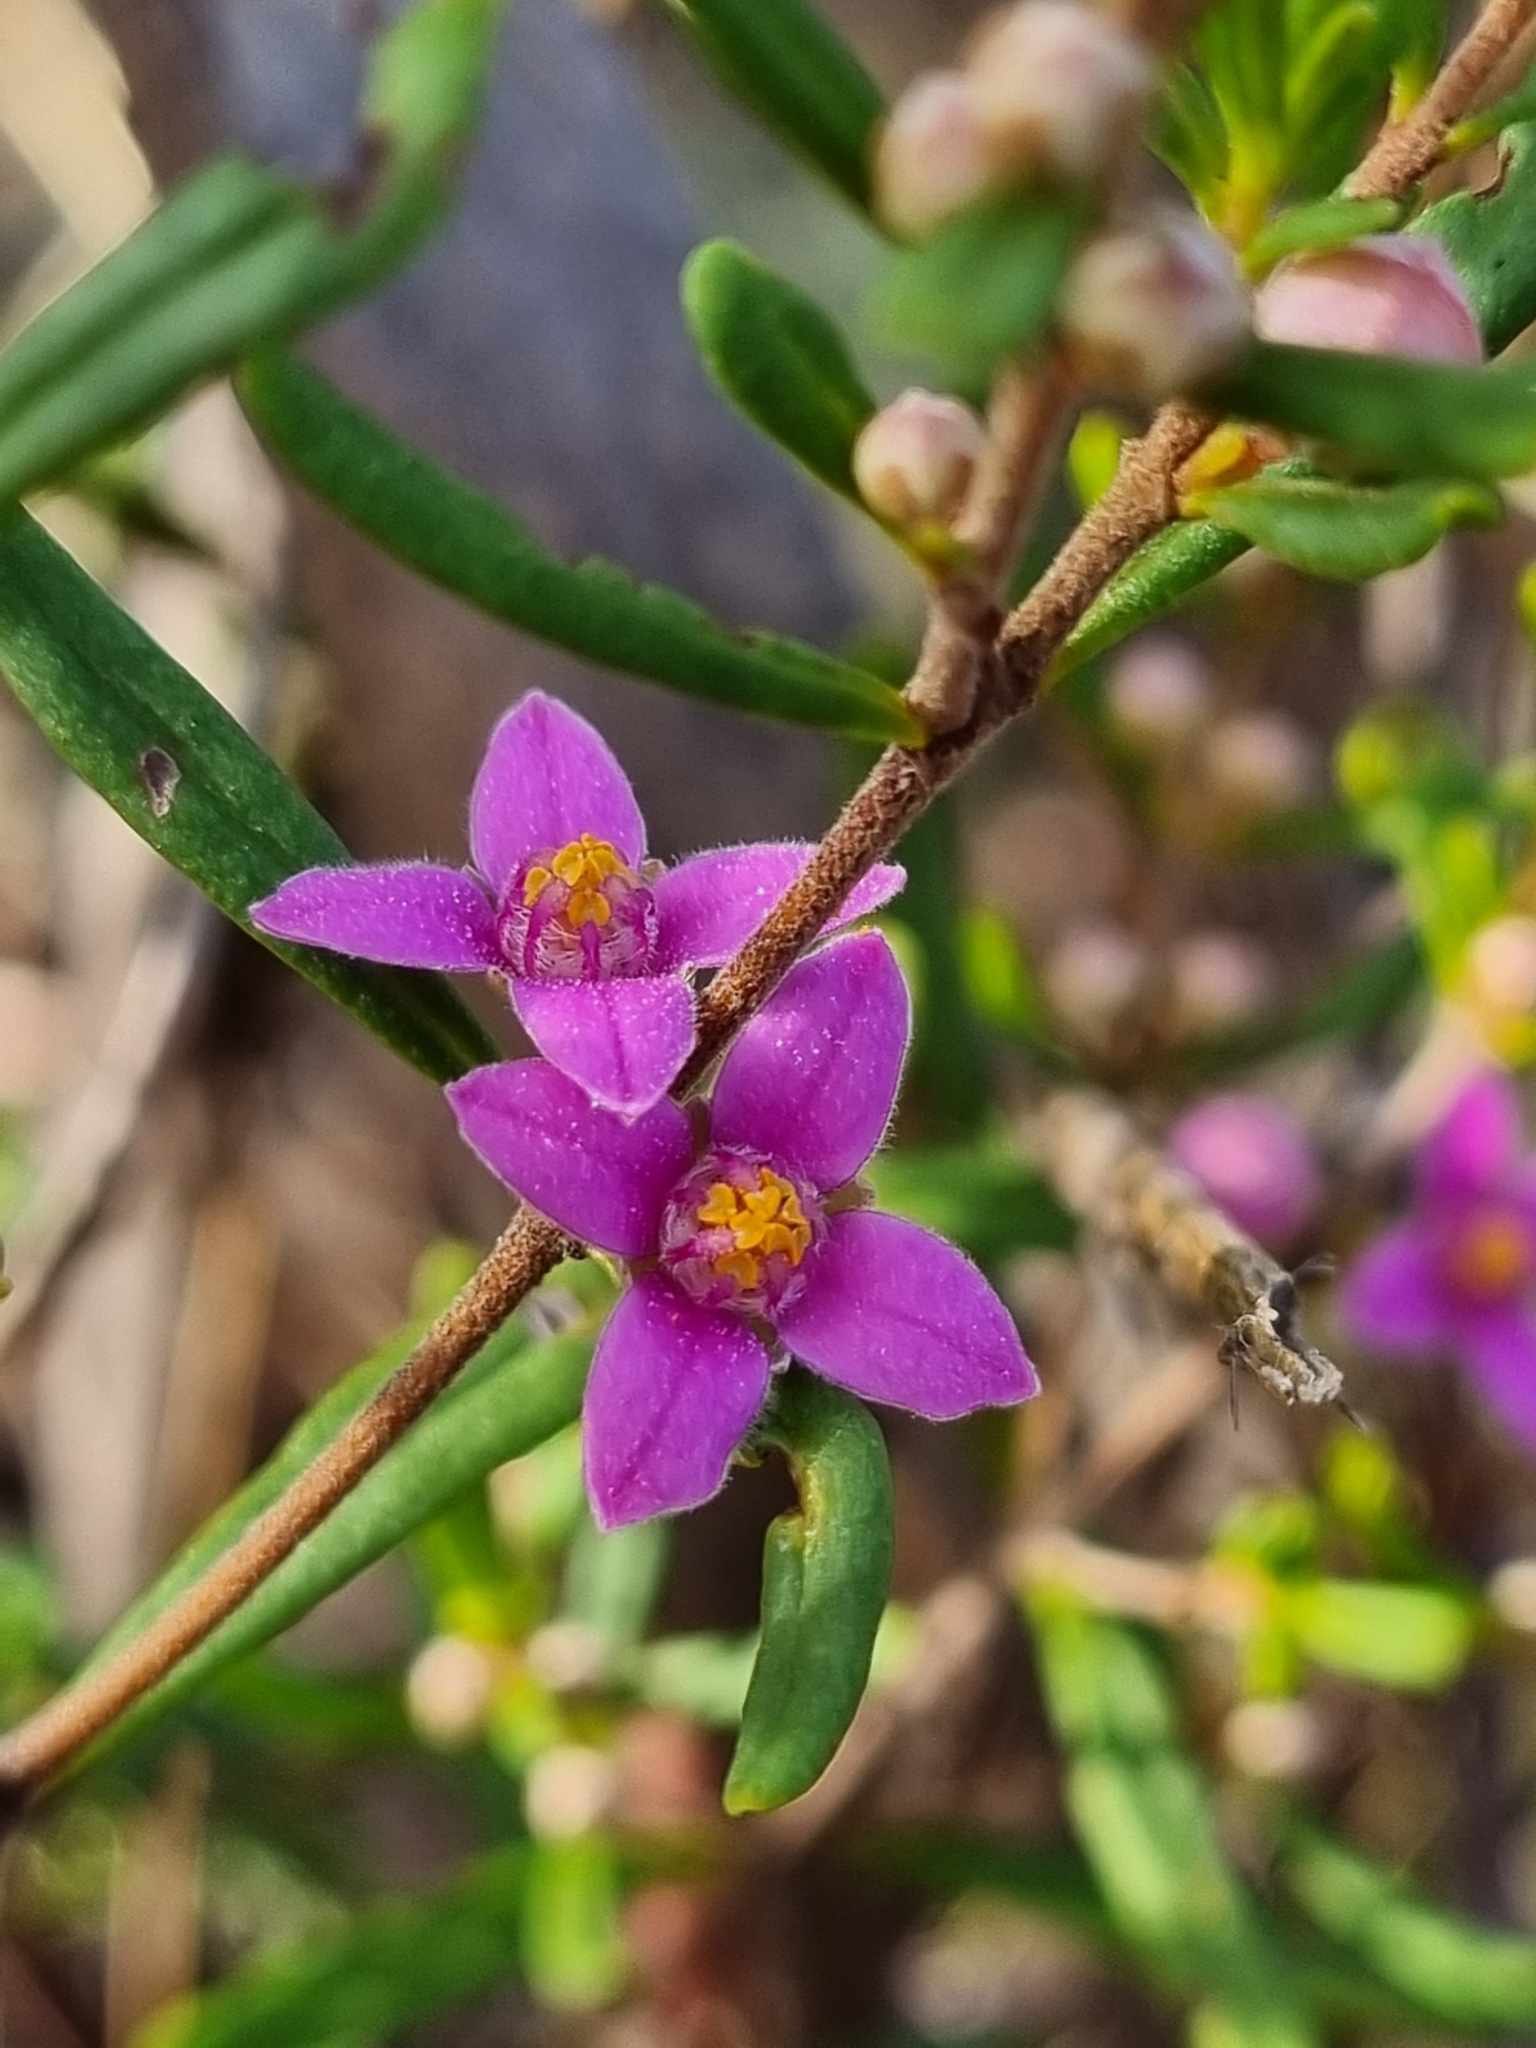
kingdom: Plantae
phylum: Tracheophyta
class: Magnoliopsida
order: Sapindales
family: Rutaceae
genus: Boronia
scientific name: Boronia glabra
